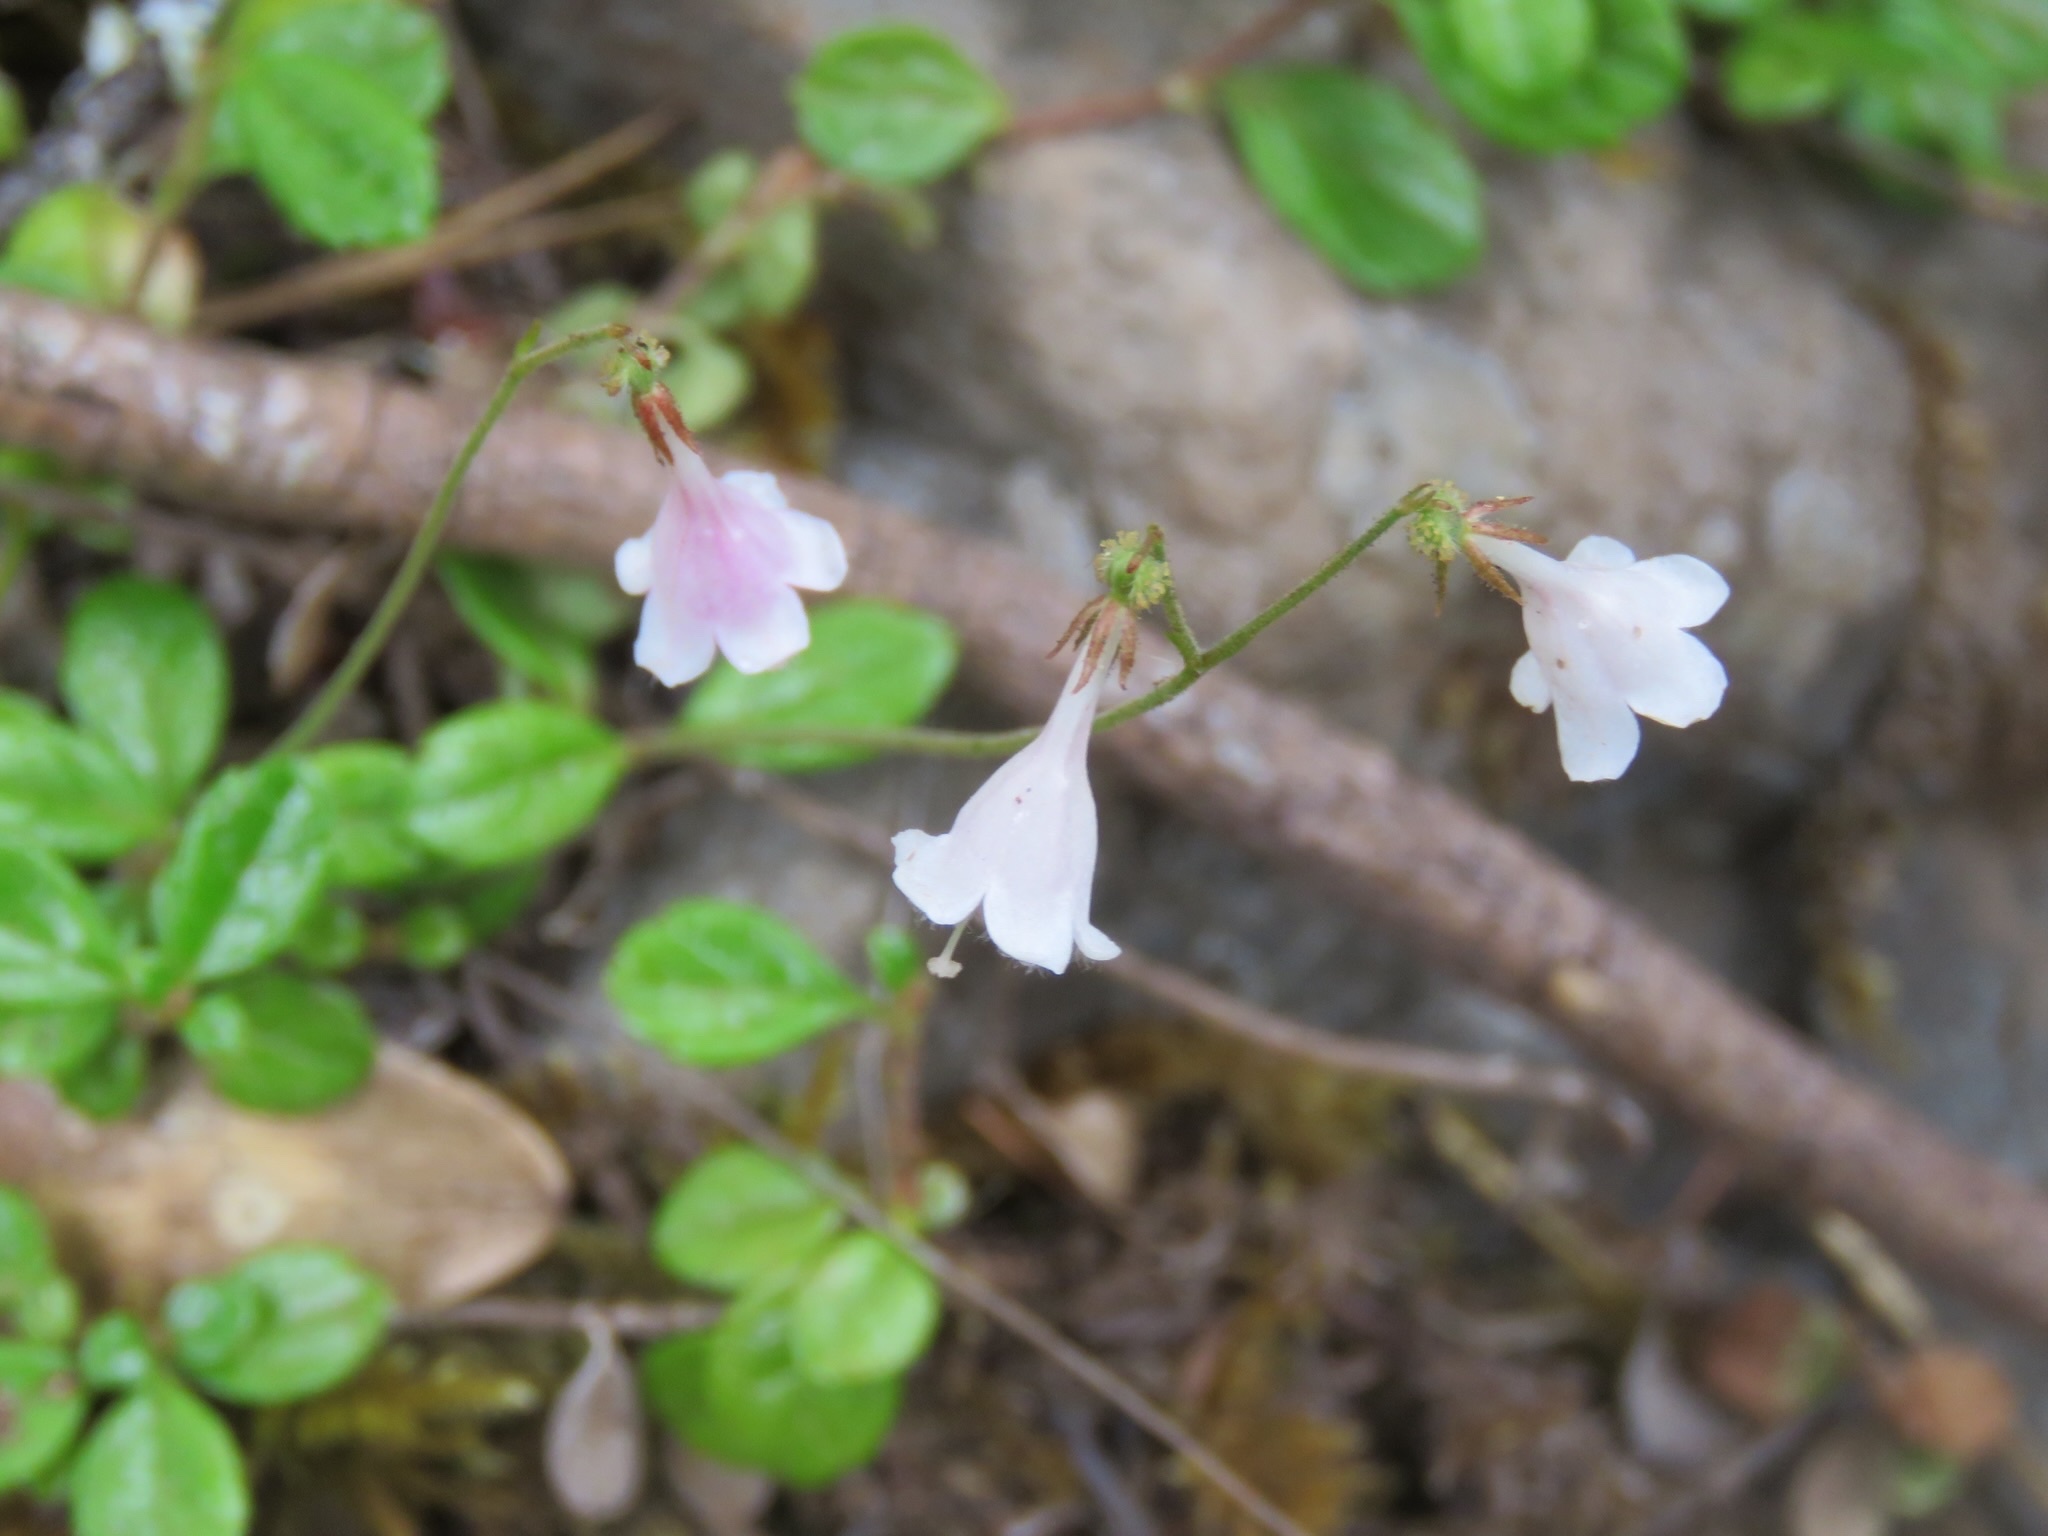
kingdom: Plantae
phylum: Tracheophyta
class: Magnoliopsida
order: Dipsacales
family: Caprifoliaceae
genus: Linnaea
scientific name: Linnaea borealis
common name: Twinflower
